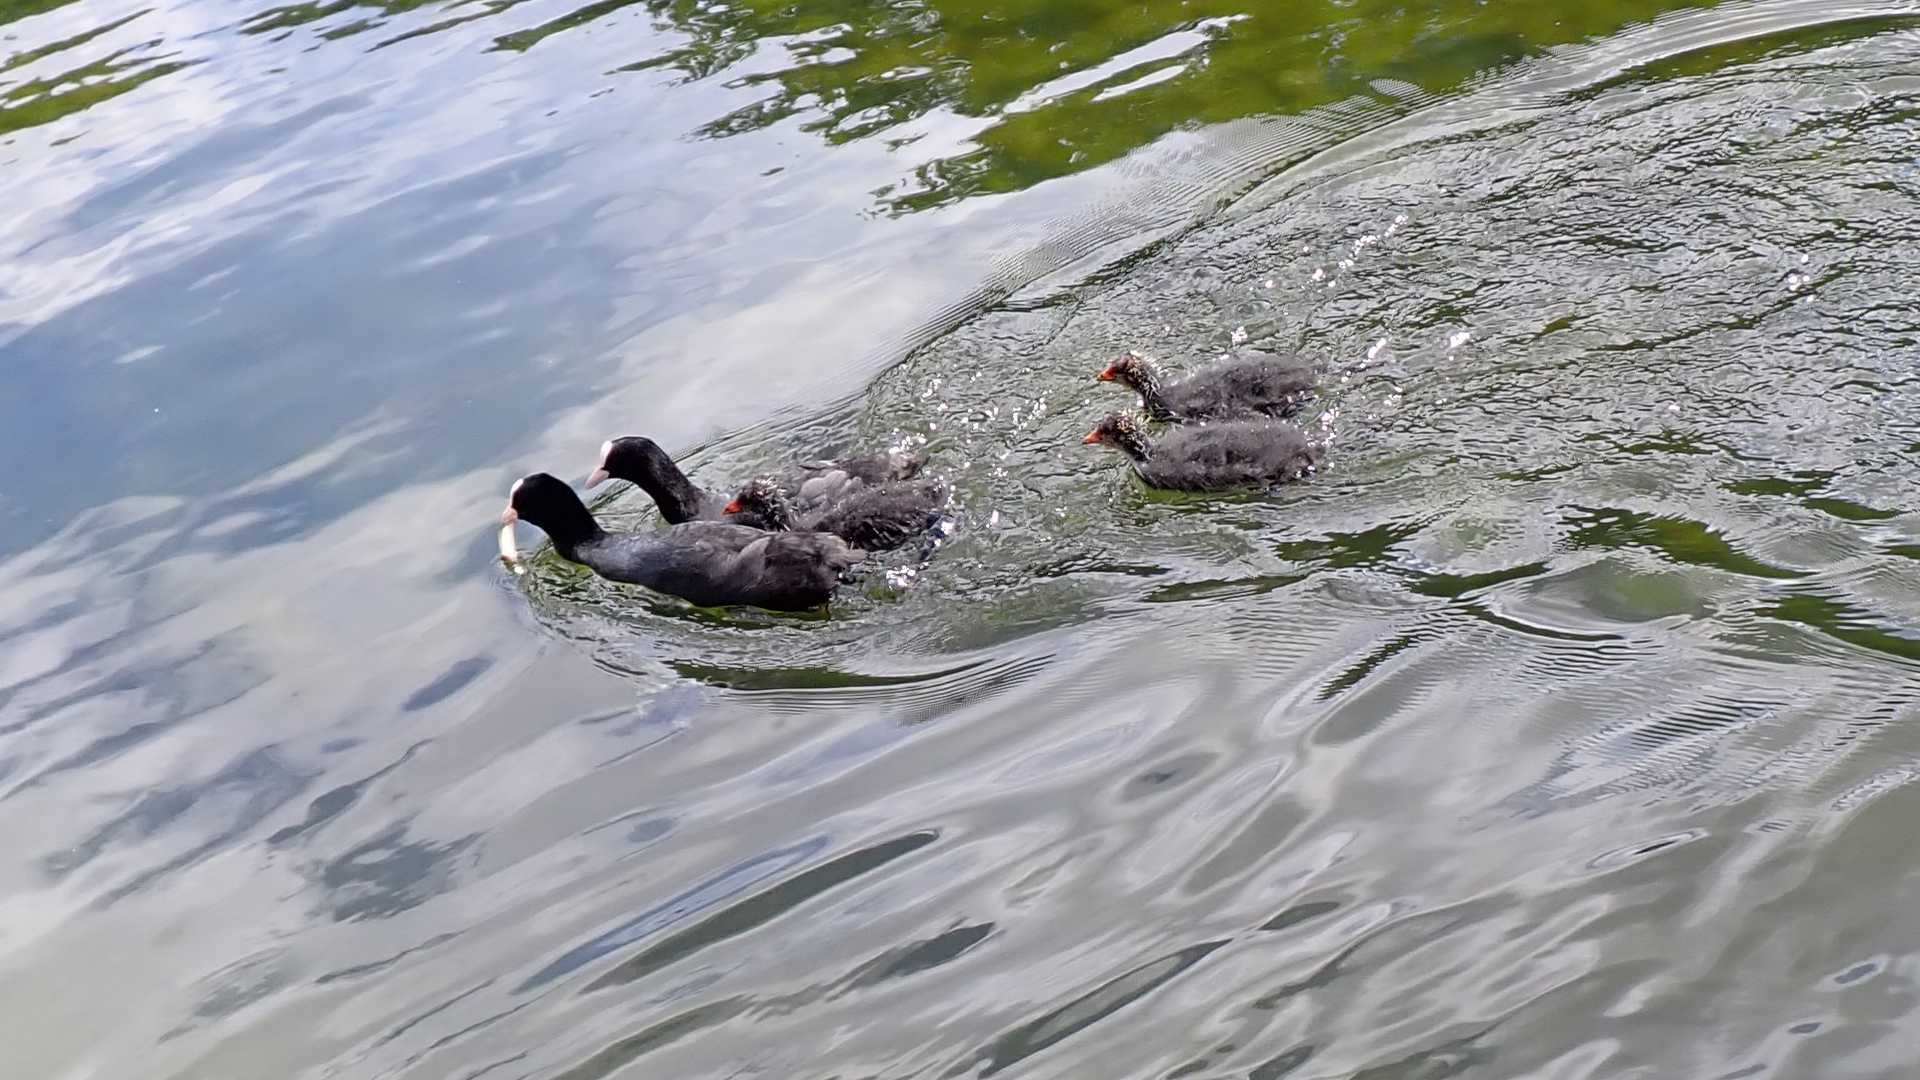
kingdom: Animalia
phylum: Chordata
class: Aves
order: Gruiformes
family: Rallidae
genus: Fulica
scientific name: Fulica atra
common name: Eurasian coot
